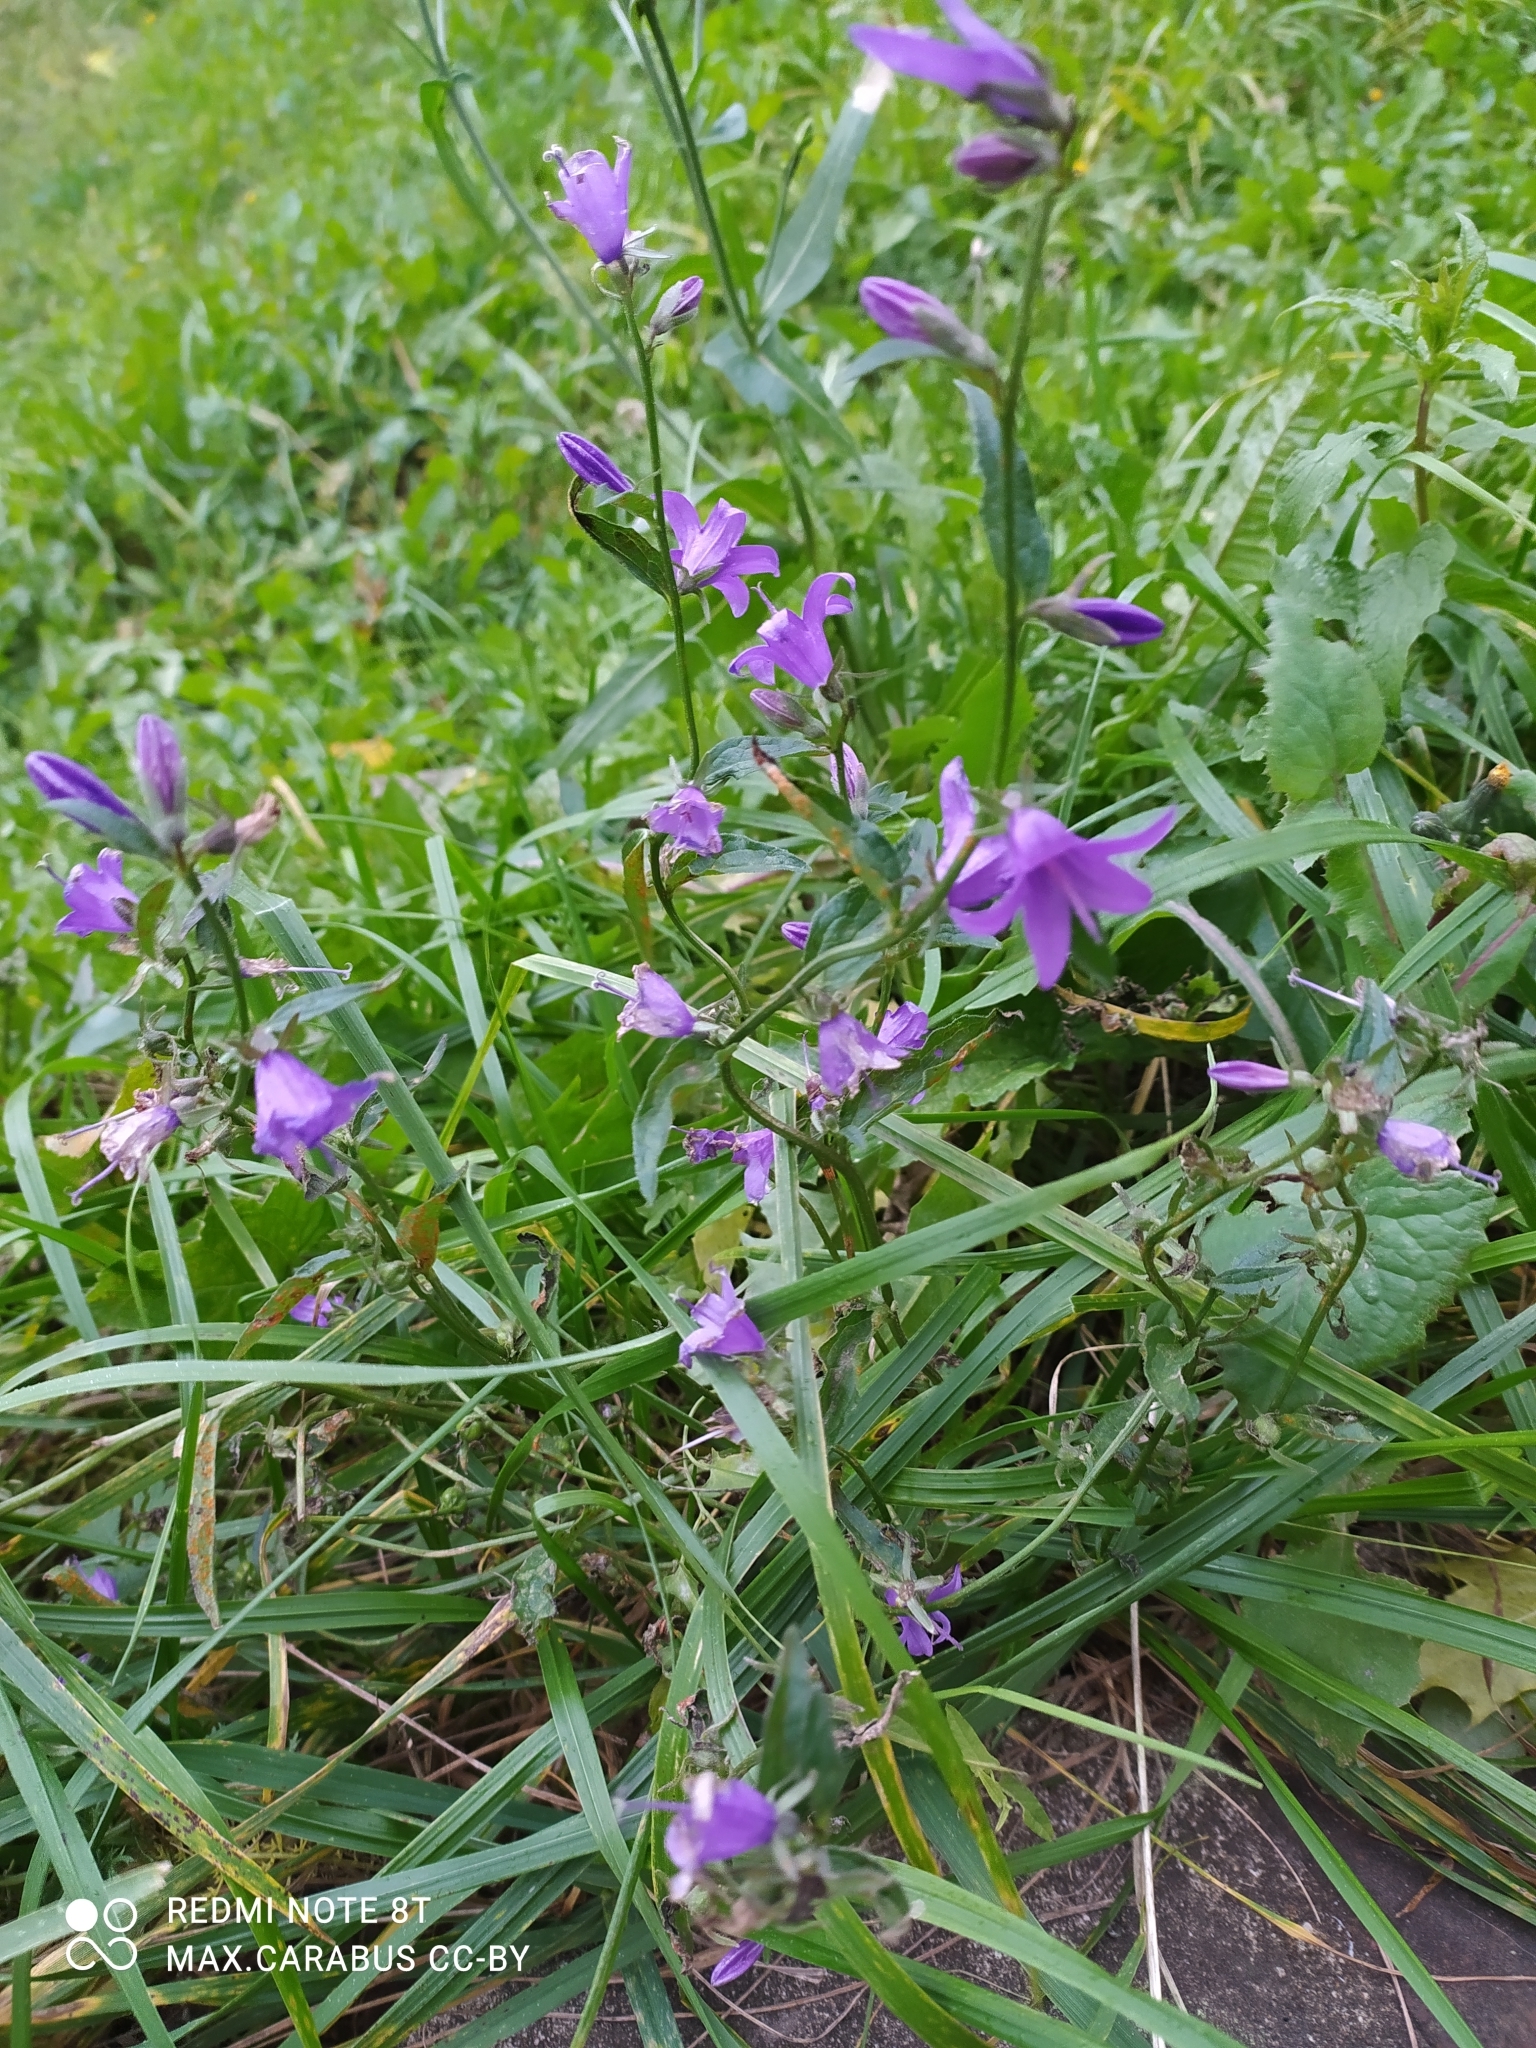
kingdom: Plantae
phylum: Tracheophyta
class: Magnoliopsida
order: Asterales
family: Campanulaceae
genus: Campanula
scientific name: Campanula rapunculoides
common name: Creeping bellflower
